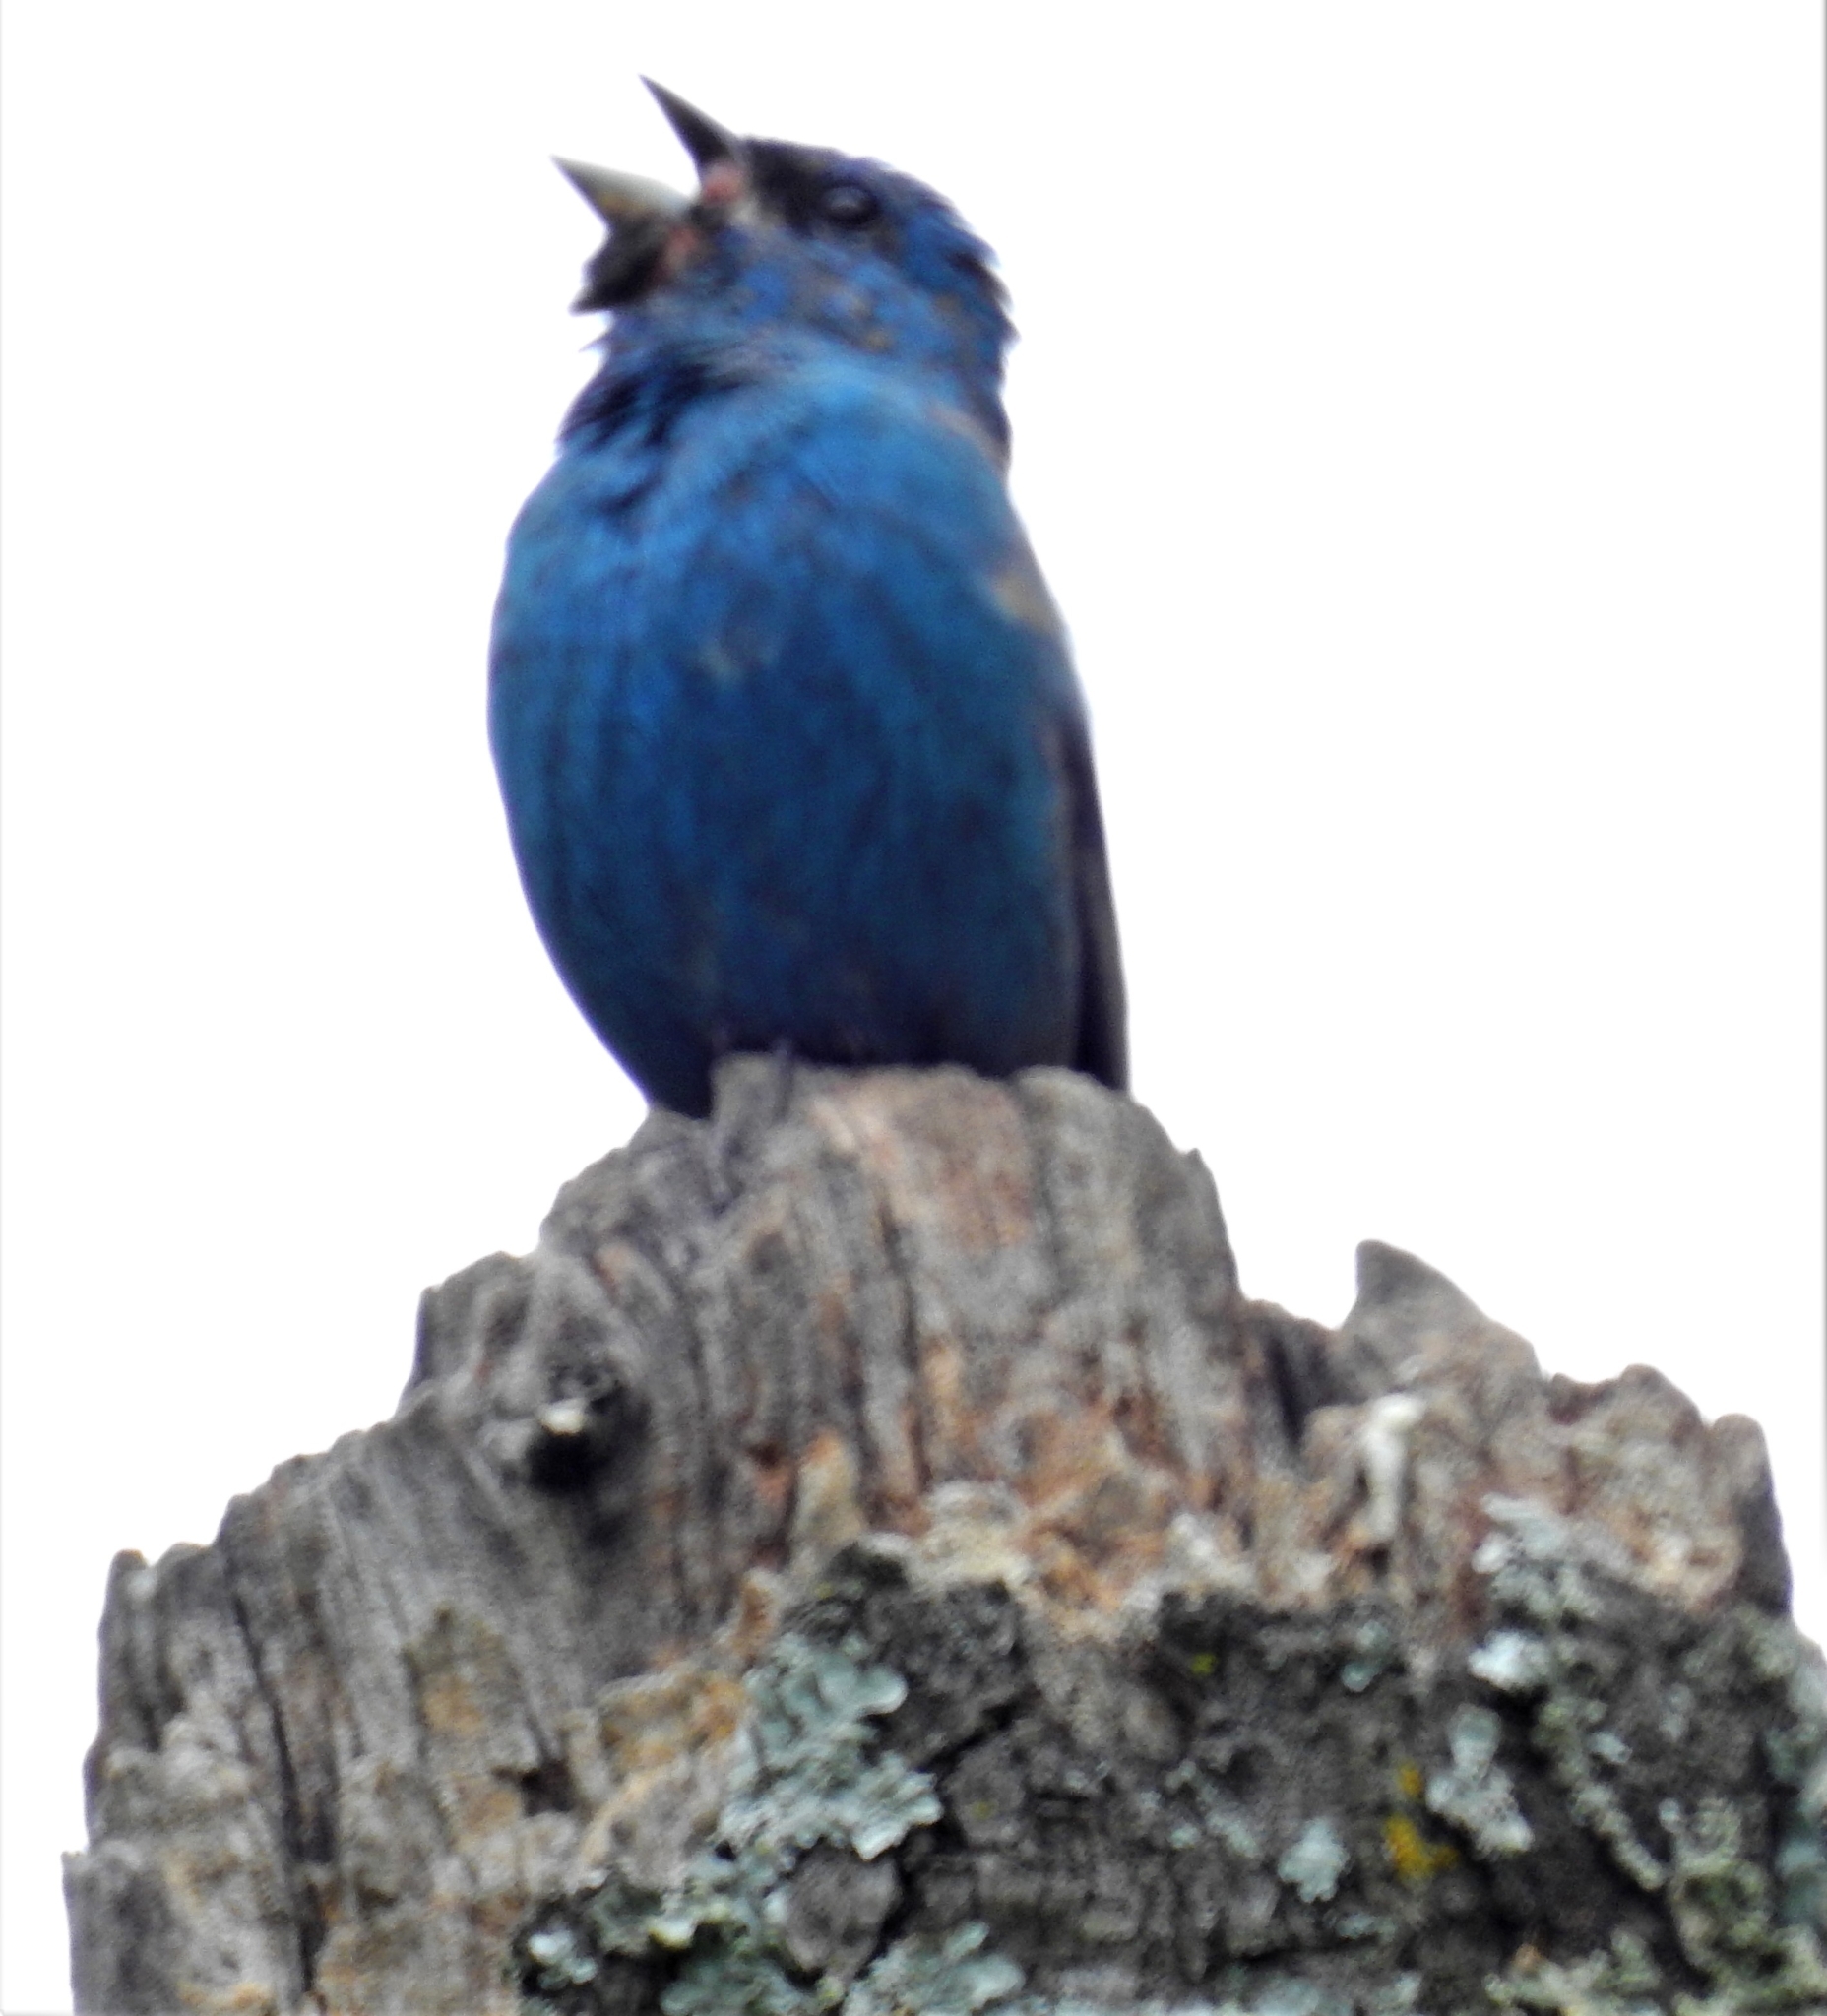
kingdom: Animalia
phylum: Chordata
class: Aves
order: Passeriformes
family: Cardinalidae
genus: Passerina
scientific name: Passerina cyanea
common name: Indigo bunting
